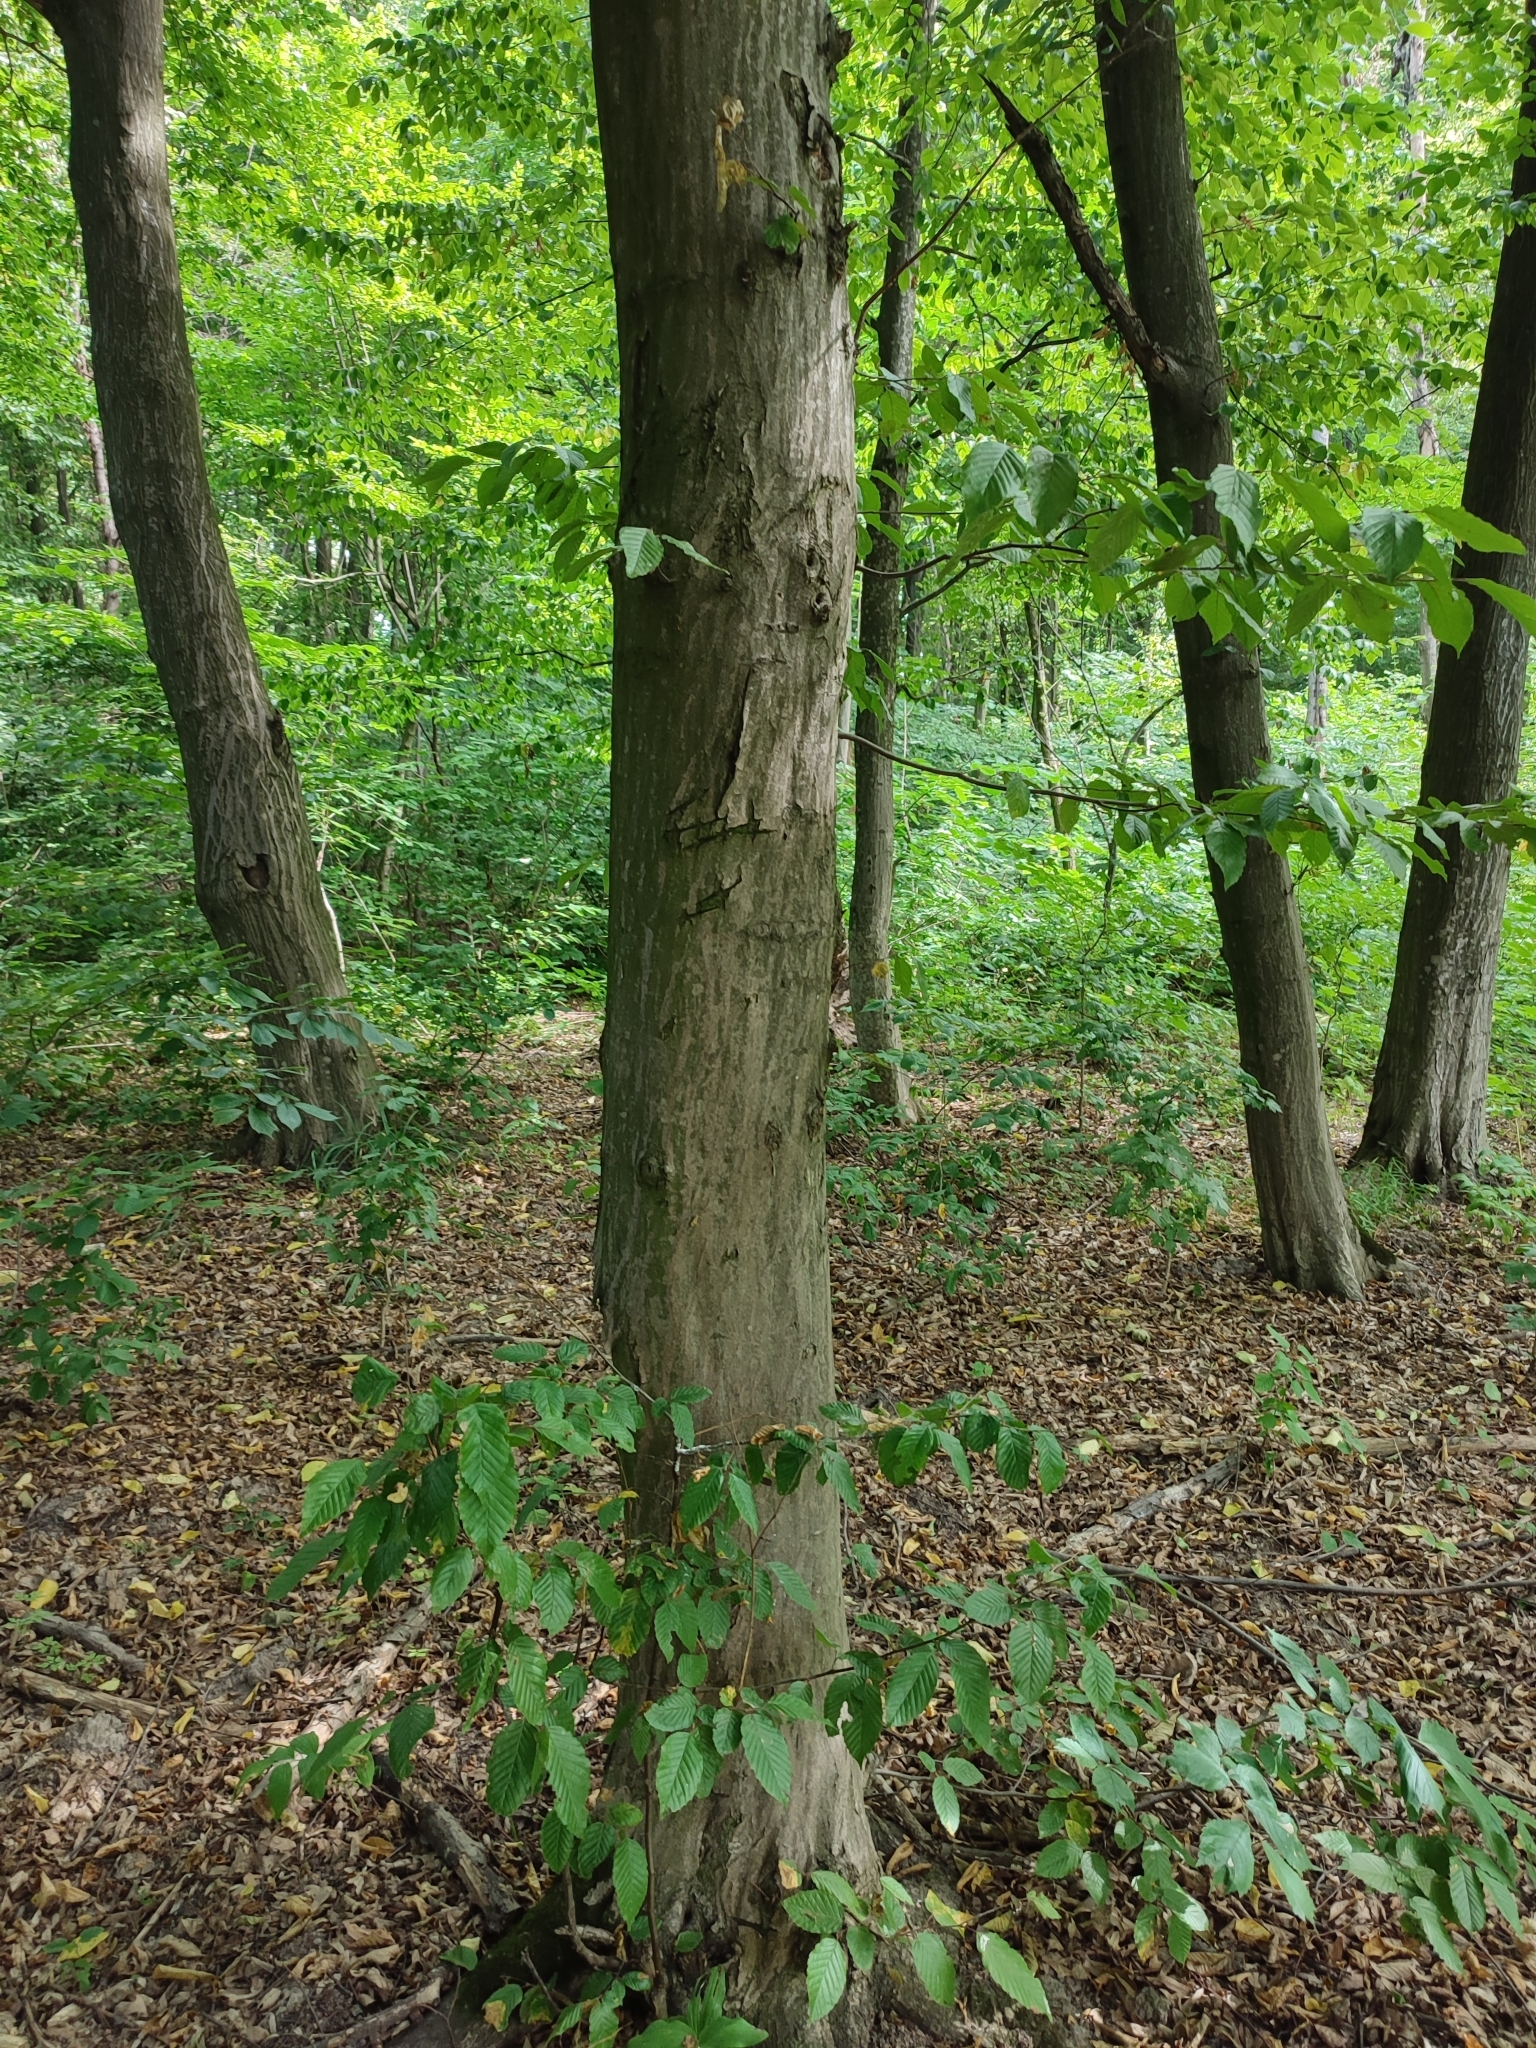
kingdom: Plantae
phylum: Tracheophyta
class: Magnoliopsida
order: Fagales
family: Betulaceae
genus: Carpinus
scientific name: Carpinus betulus
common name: Hornbeam
